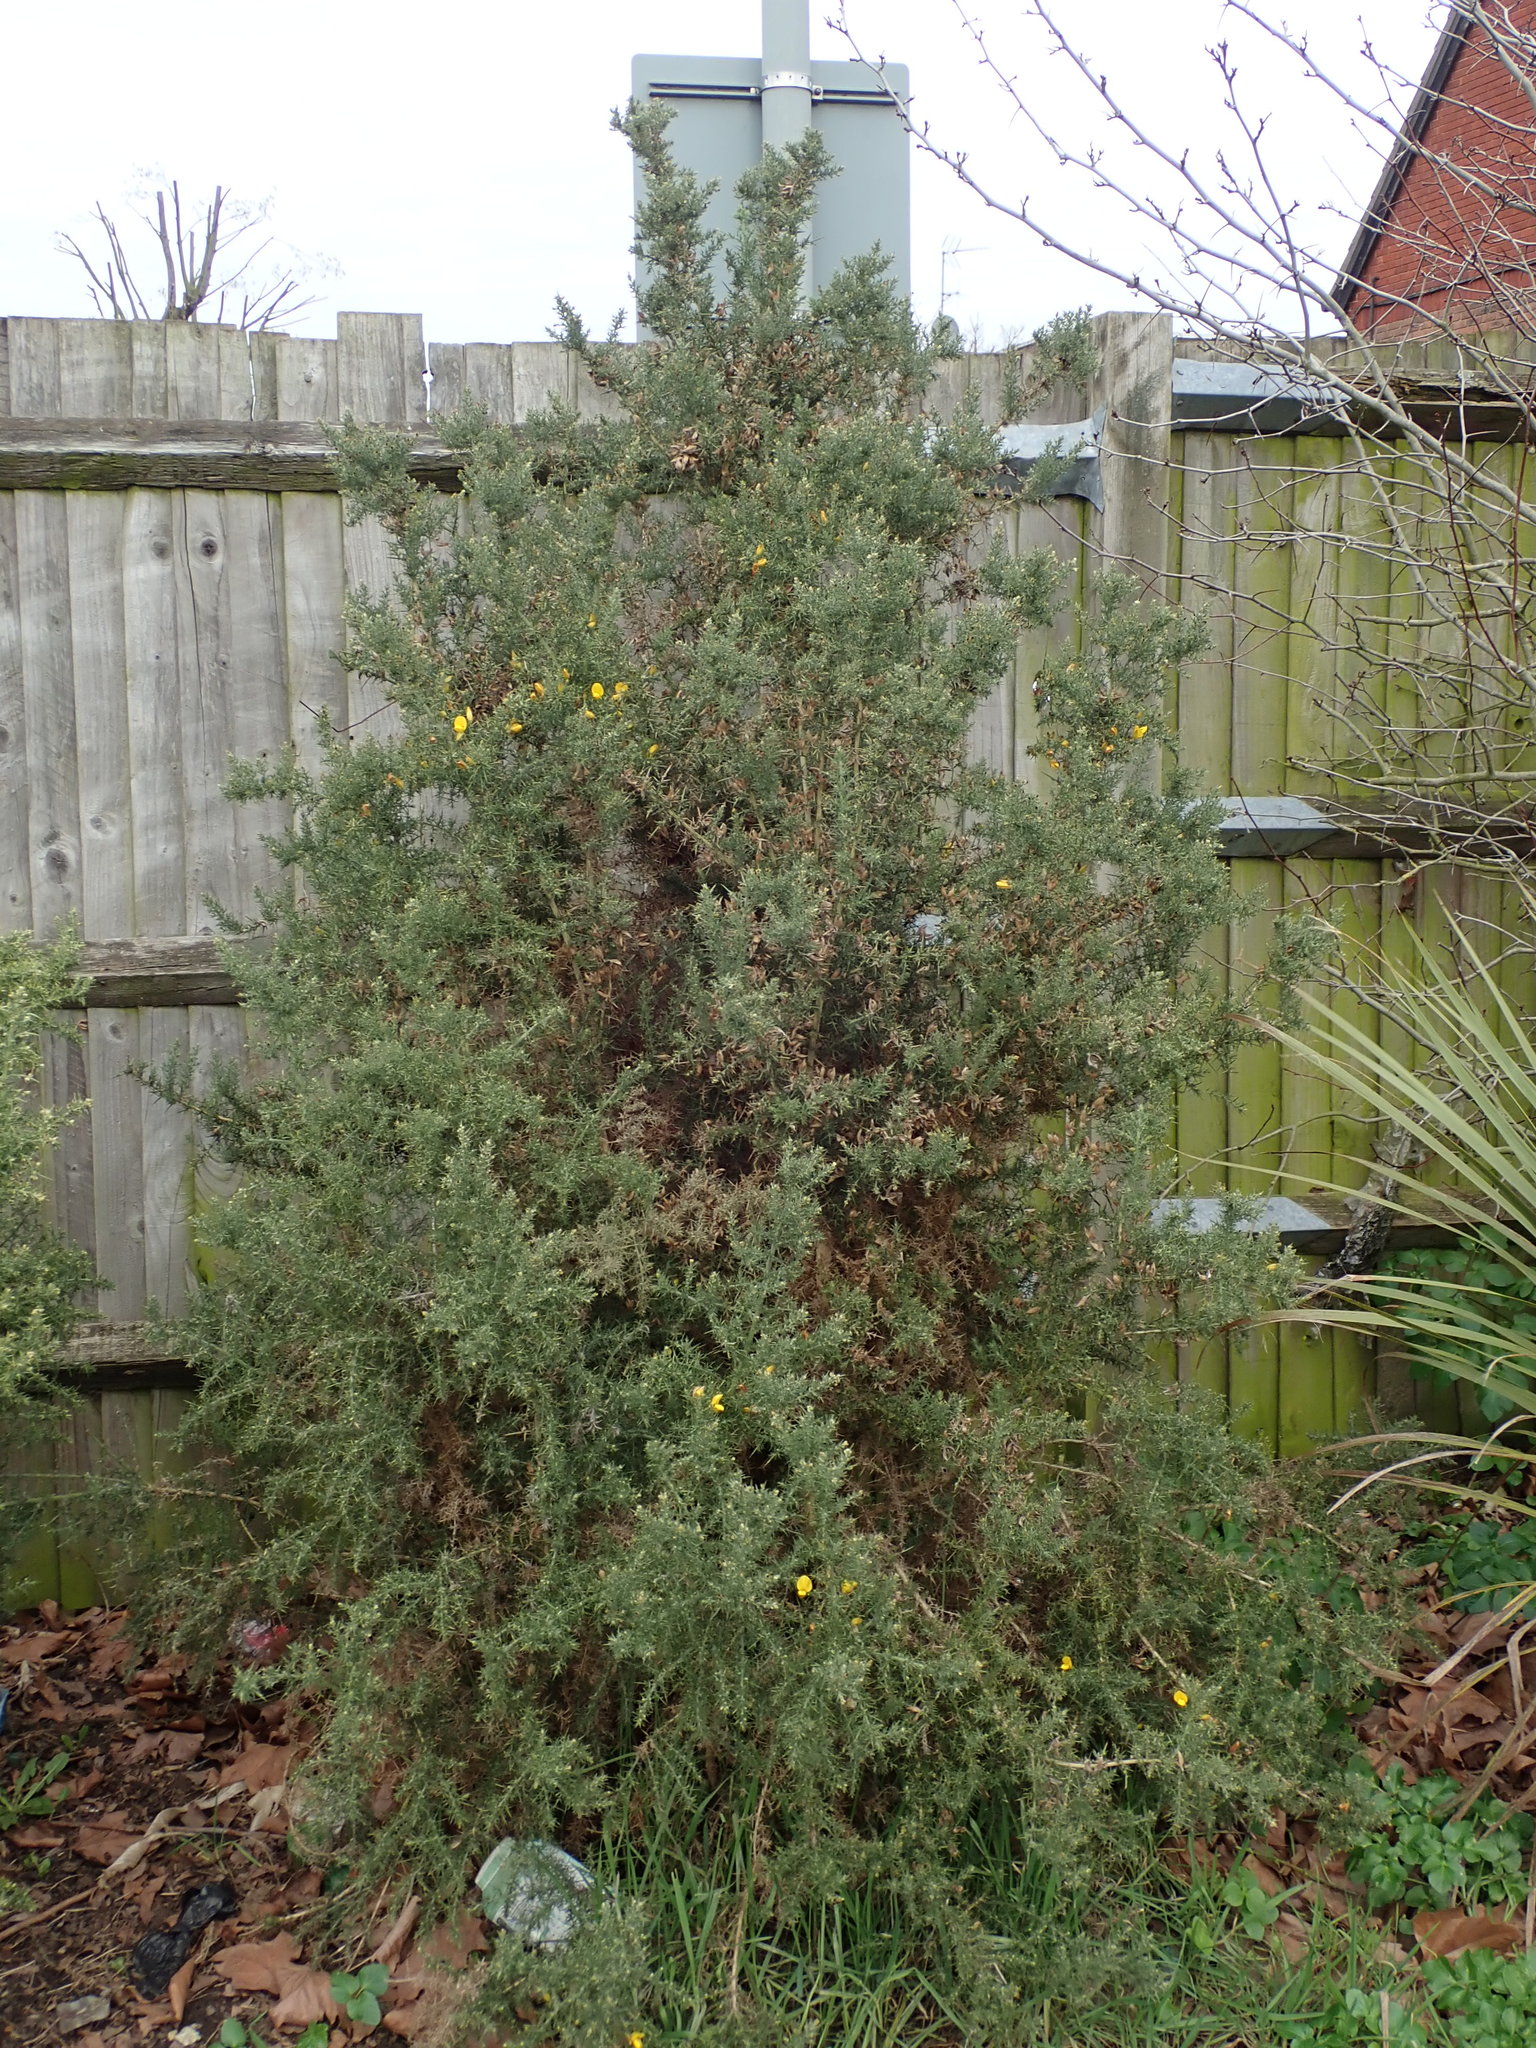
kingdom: Plantae
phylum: Tracheophyta
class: Magnoliopsida
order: Fabales
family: Fabaceae
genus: Ulex
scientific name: Ulex europaeus
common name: Common gorse
